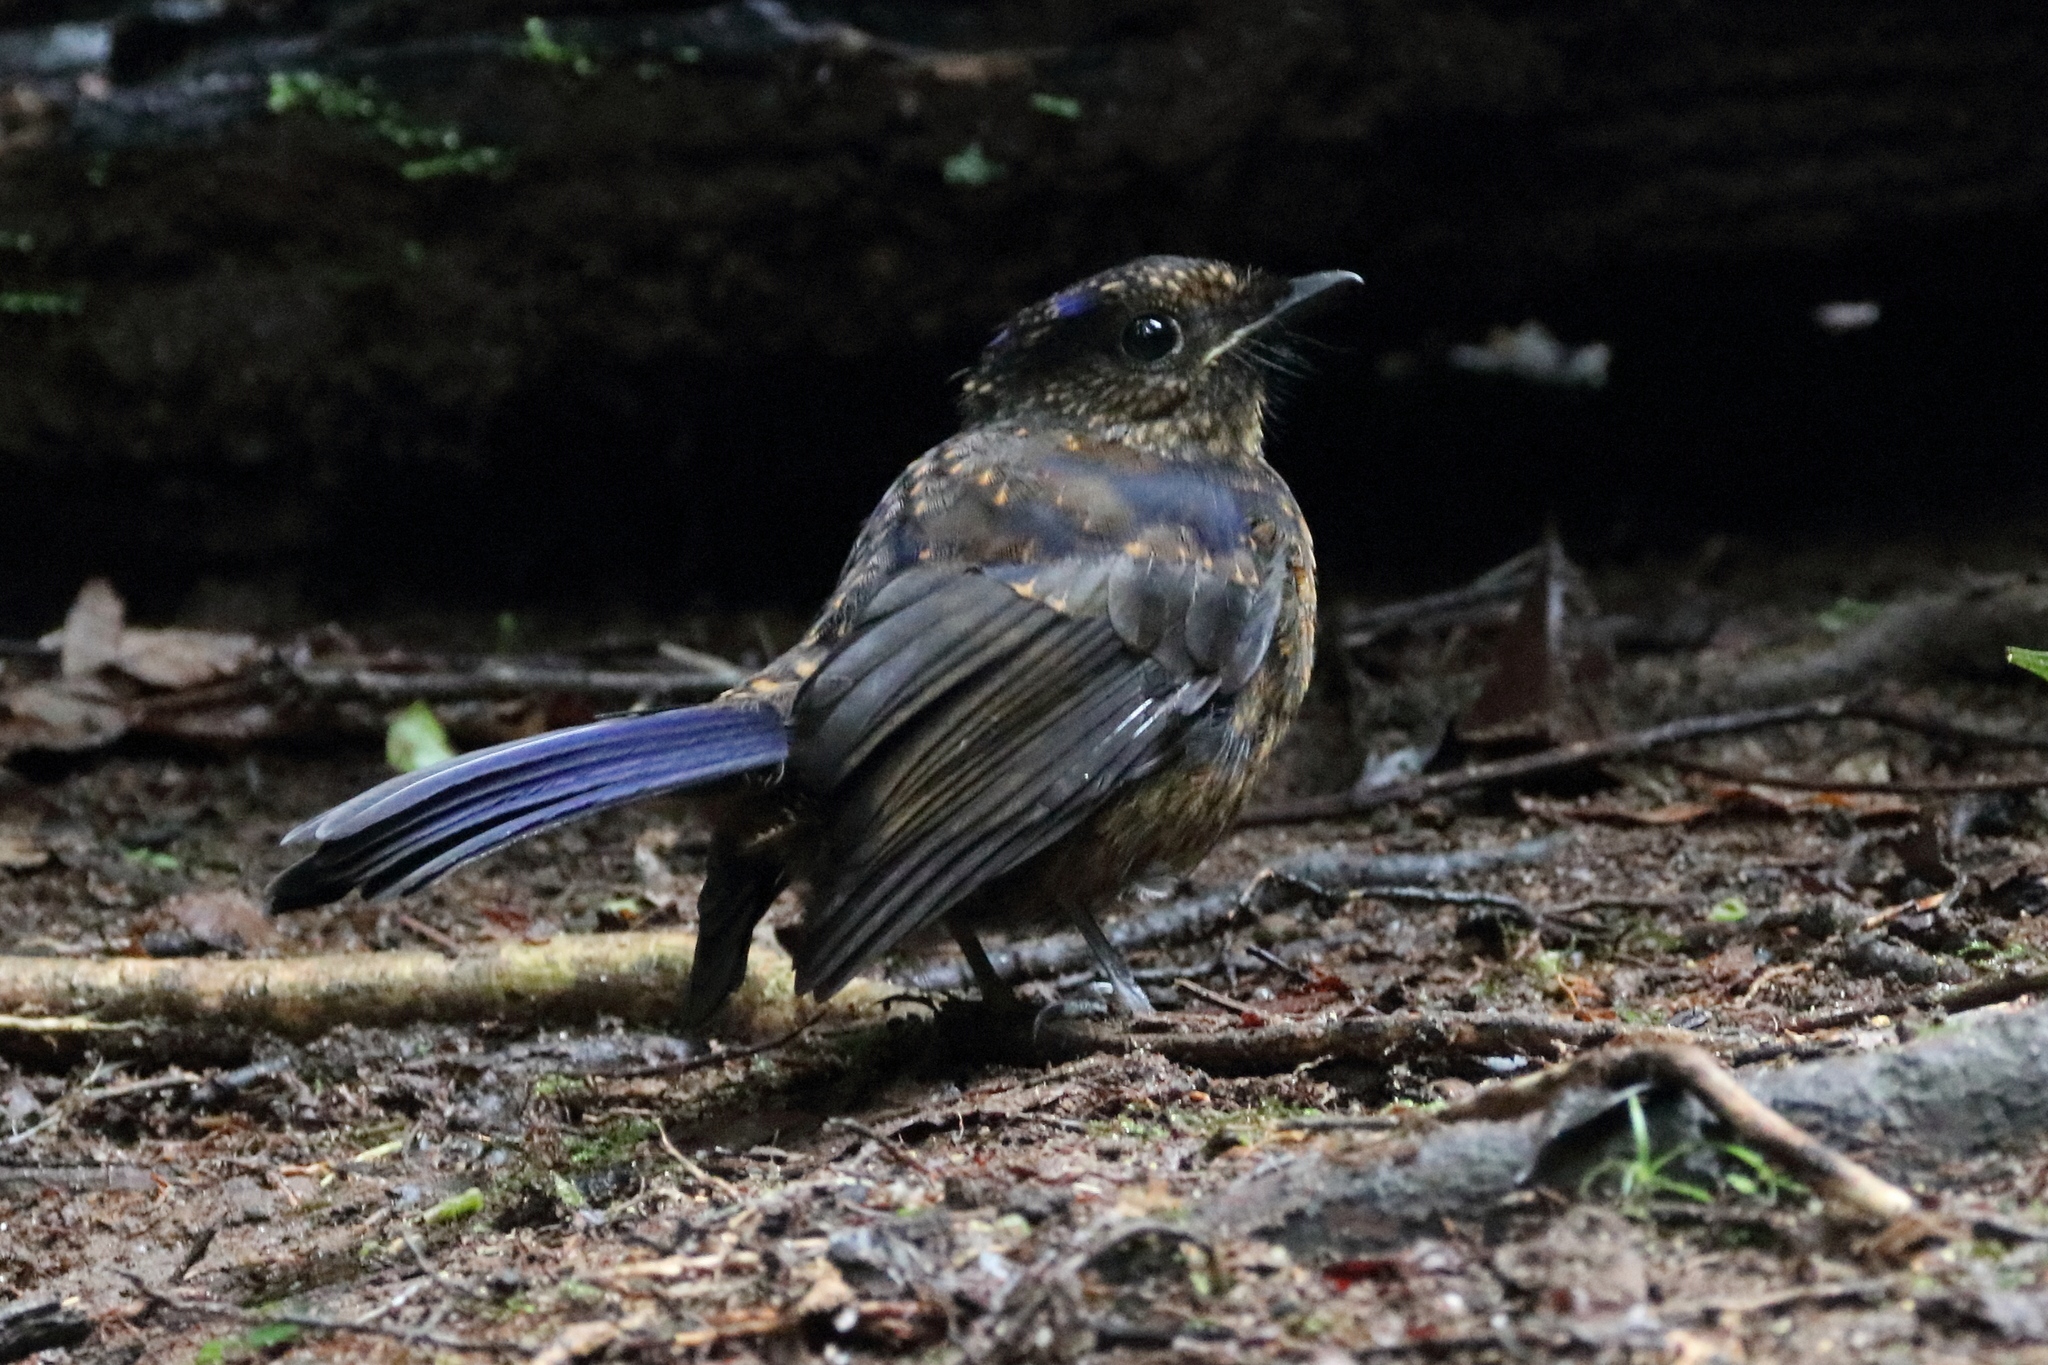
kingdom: Animalia
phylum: Chordata
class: Aves
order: Passeriformes
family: Muscicapidae
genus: Niltava
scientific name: Niltava grandis
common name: Large niltava
